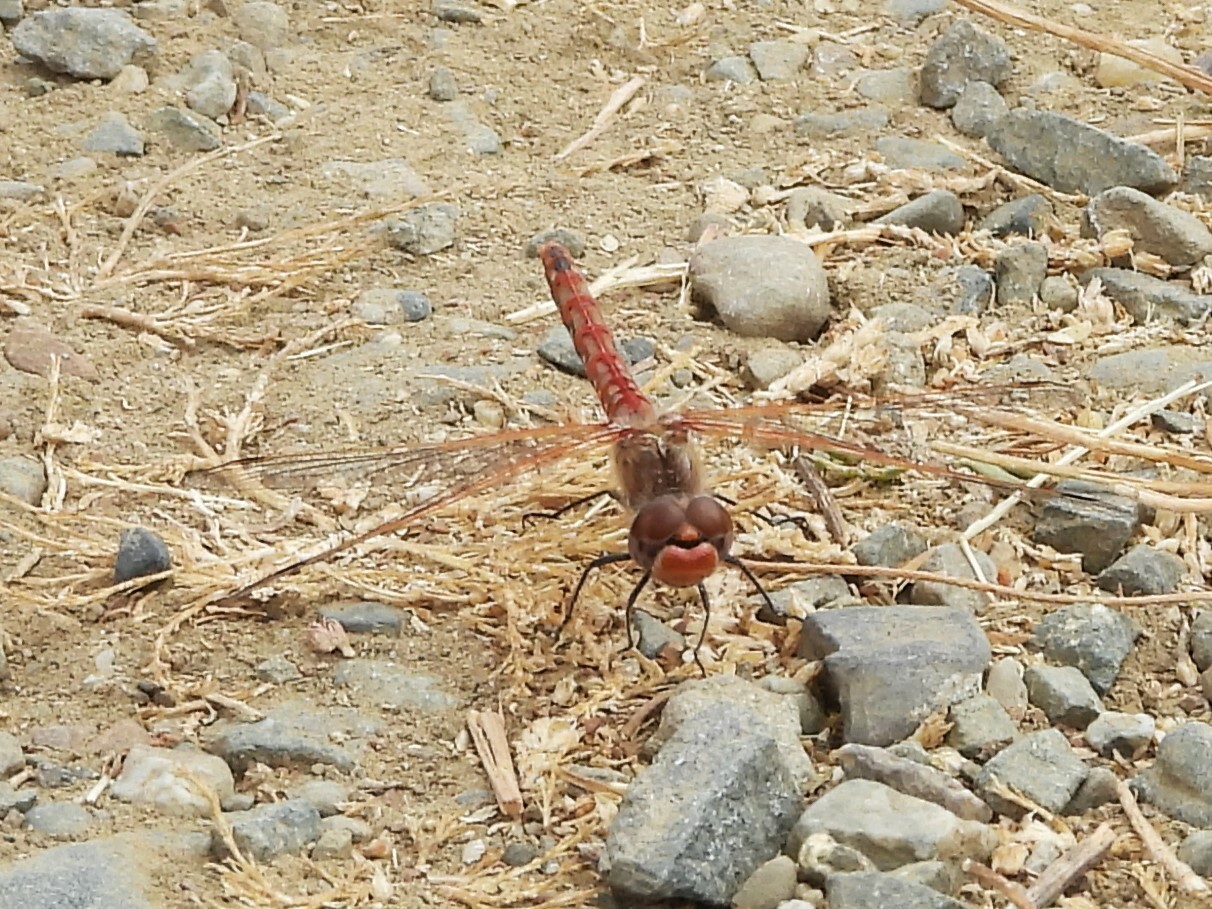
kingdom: Animalia
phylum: Arthropoda
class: Insecta
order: Odonata
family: Libellulidae
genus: Sympetrum
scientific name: Sympetrum corruptum
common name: Variegated meadowhawk
